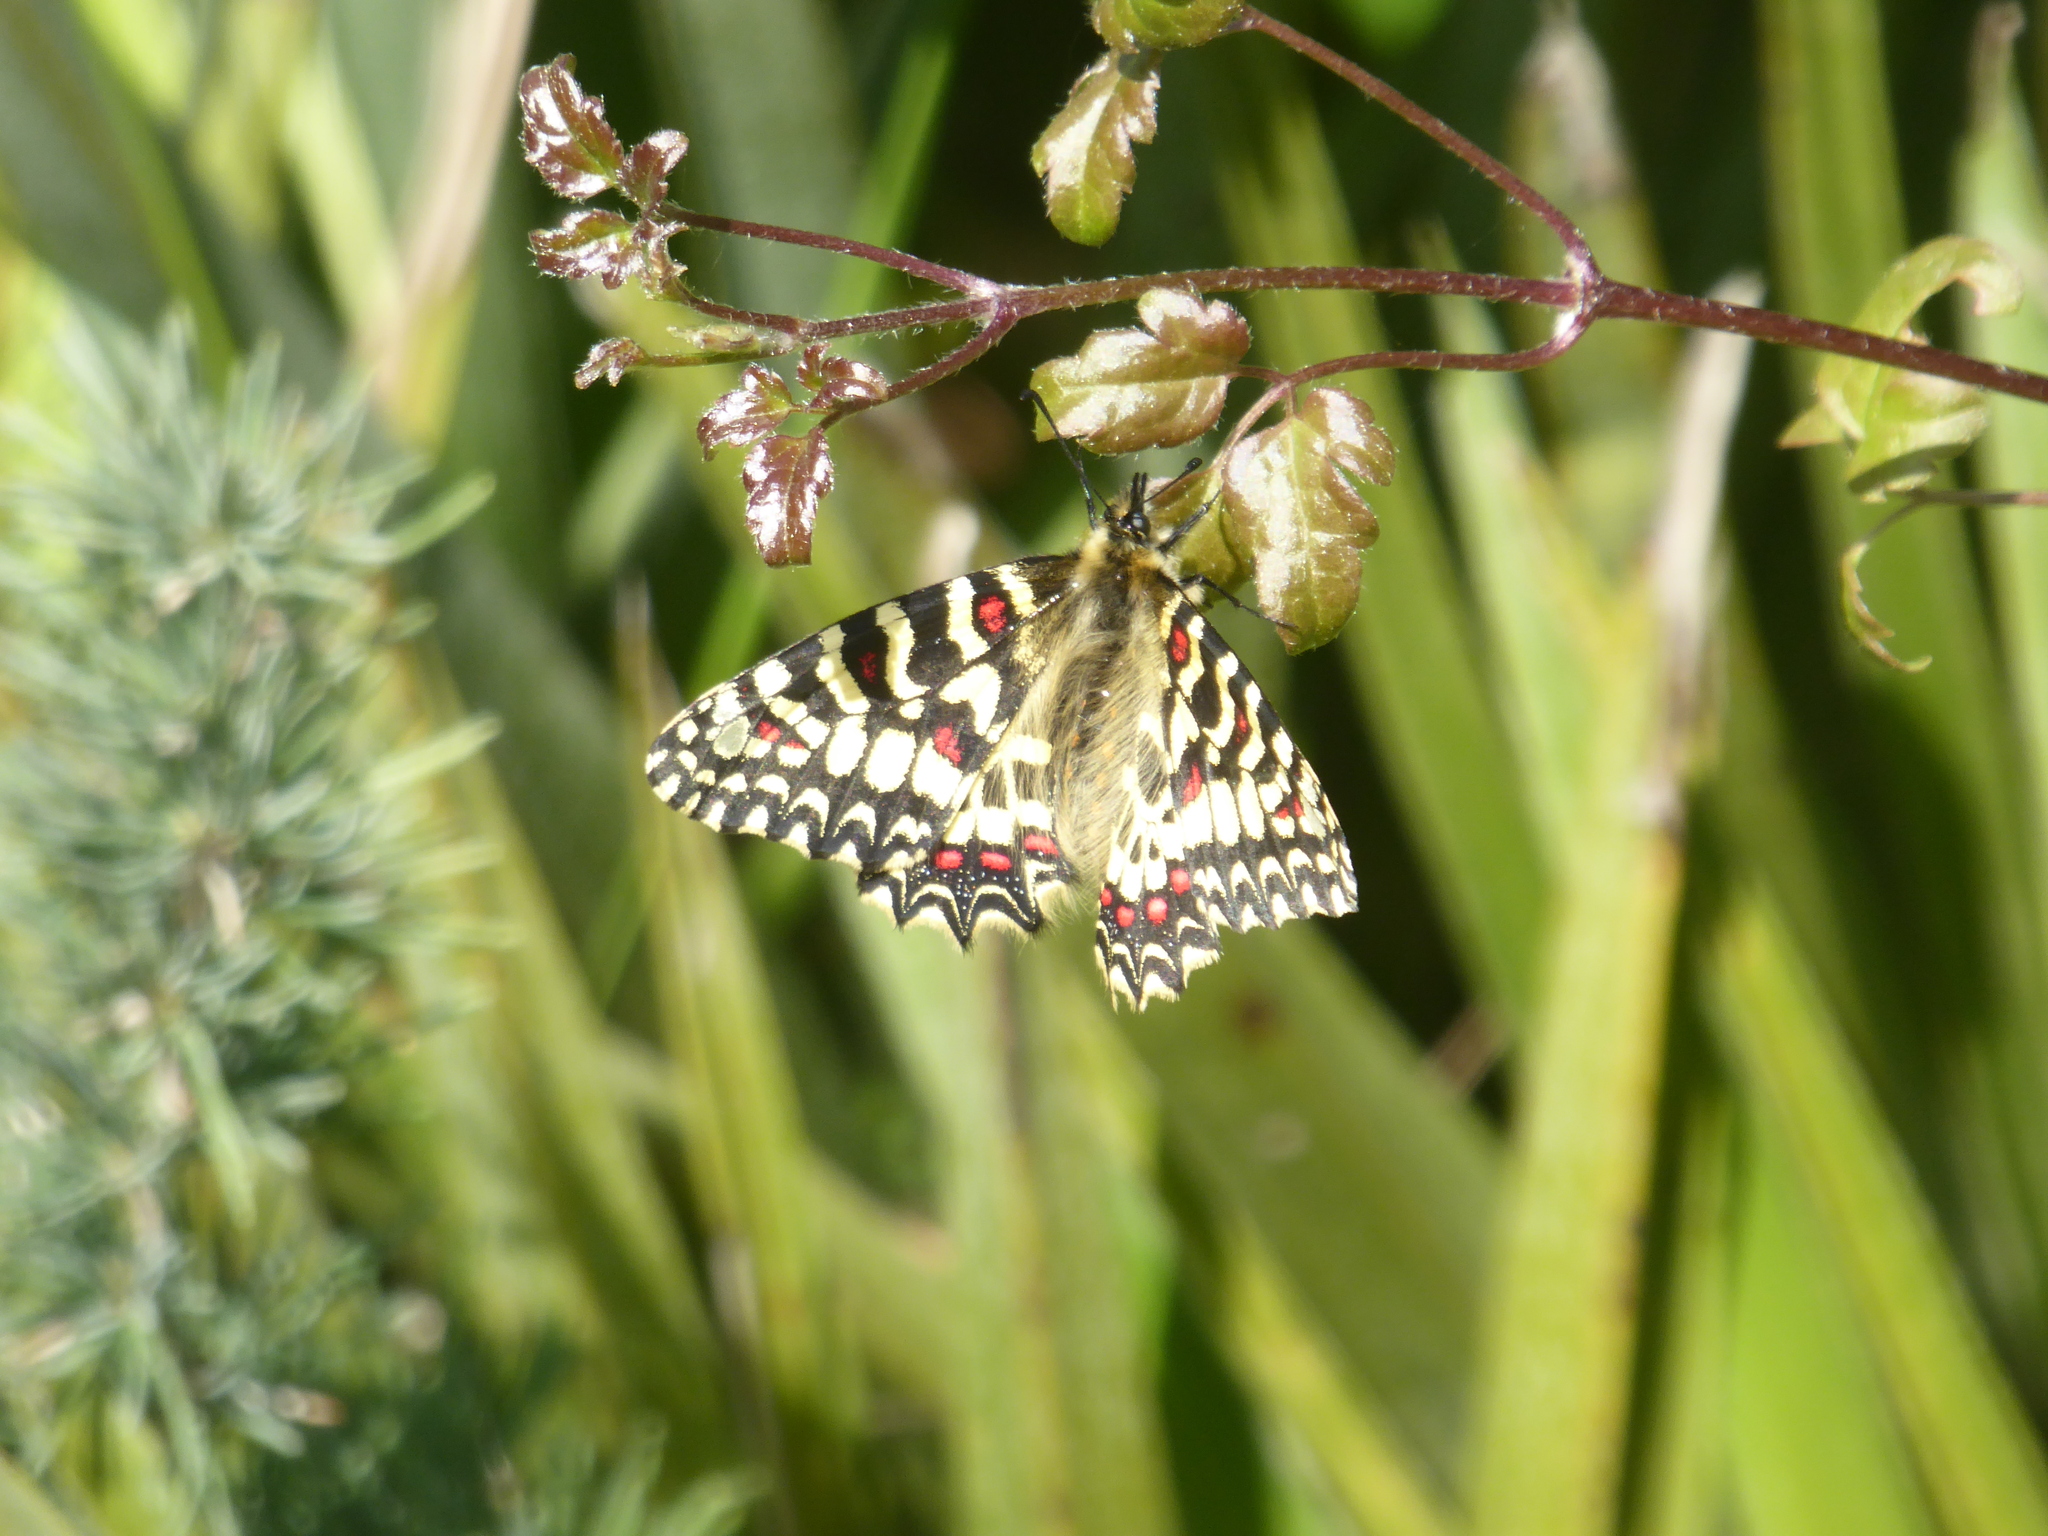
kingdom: Animalia
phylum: Arthropoda
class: Insecta
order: Lepidoptera
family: Papilionidae
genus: Zerynthia
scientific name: Zerynthia rumina
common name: Spanish festoon
